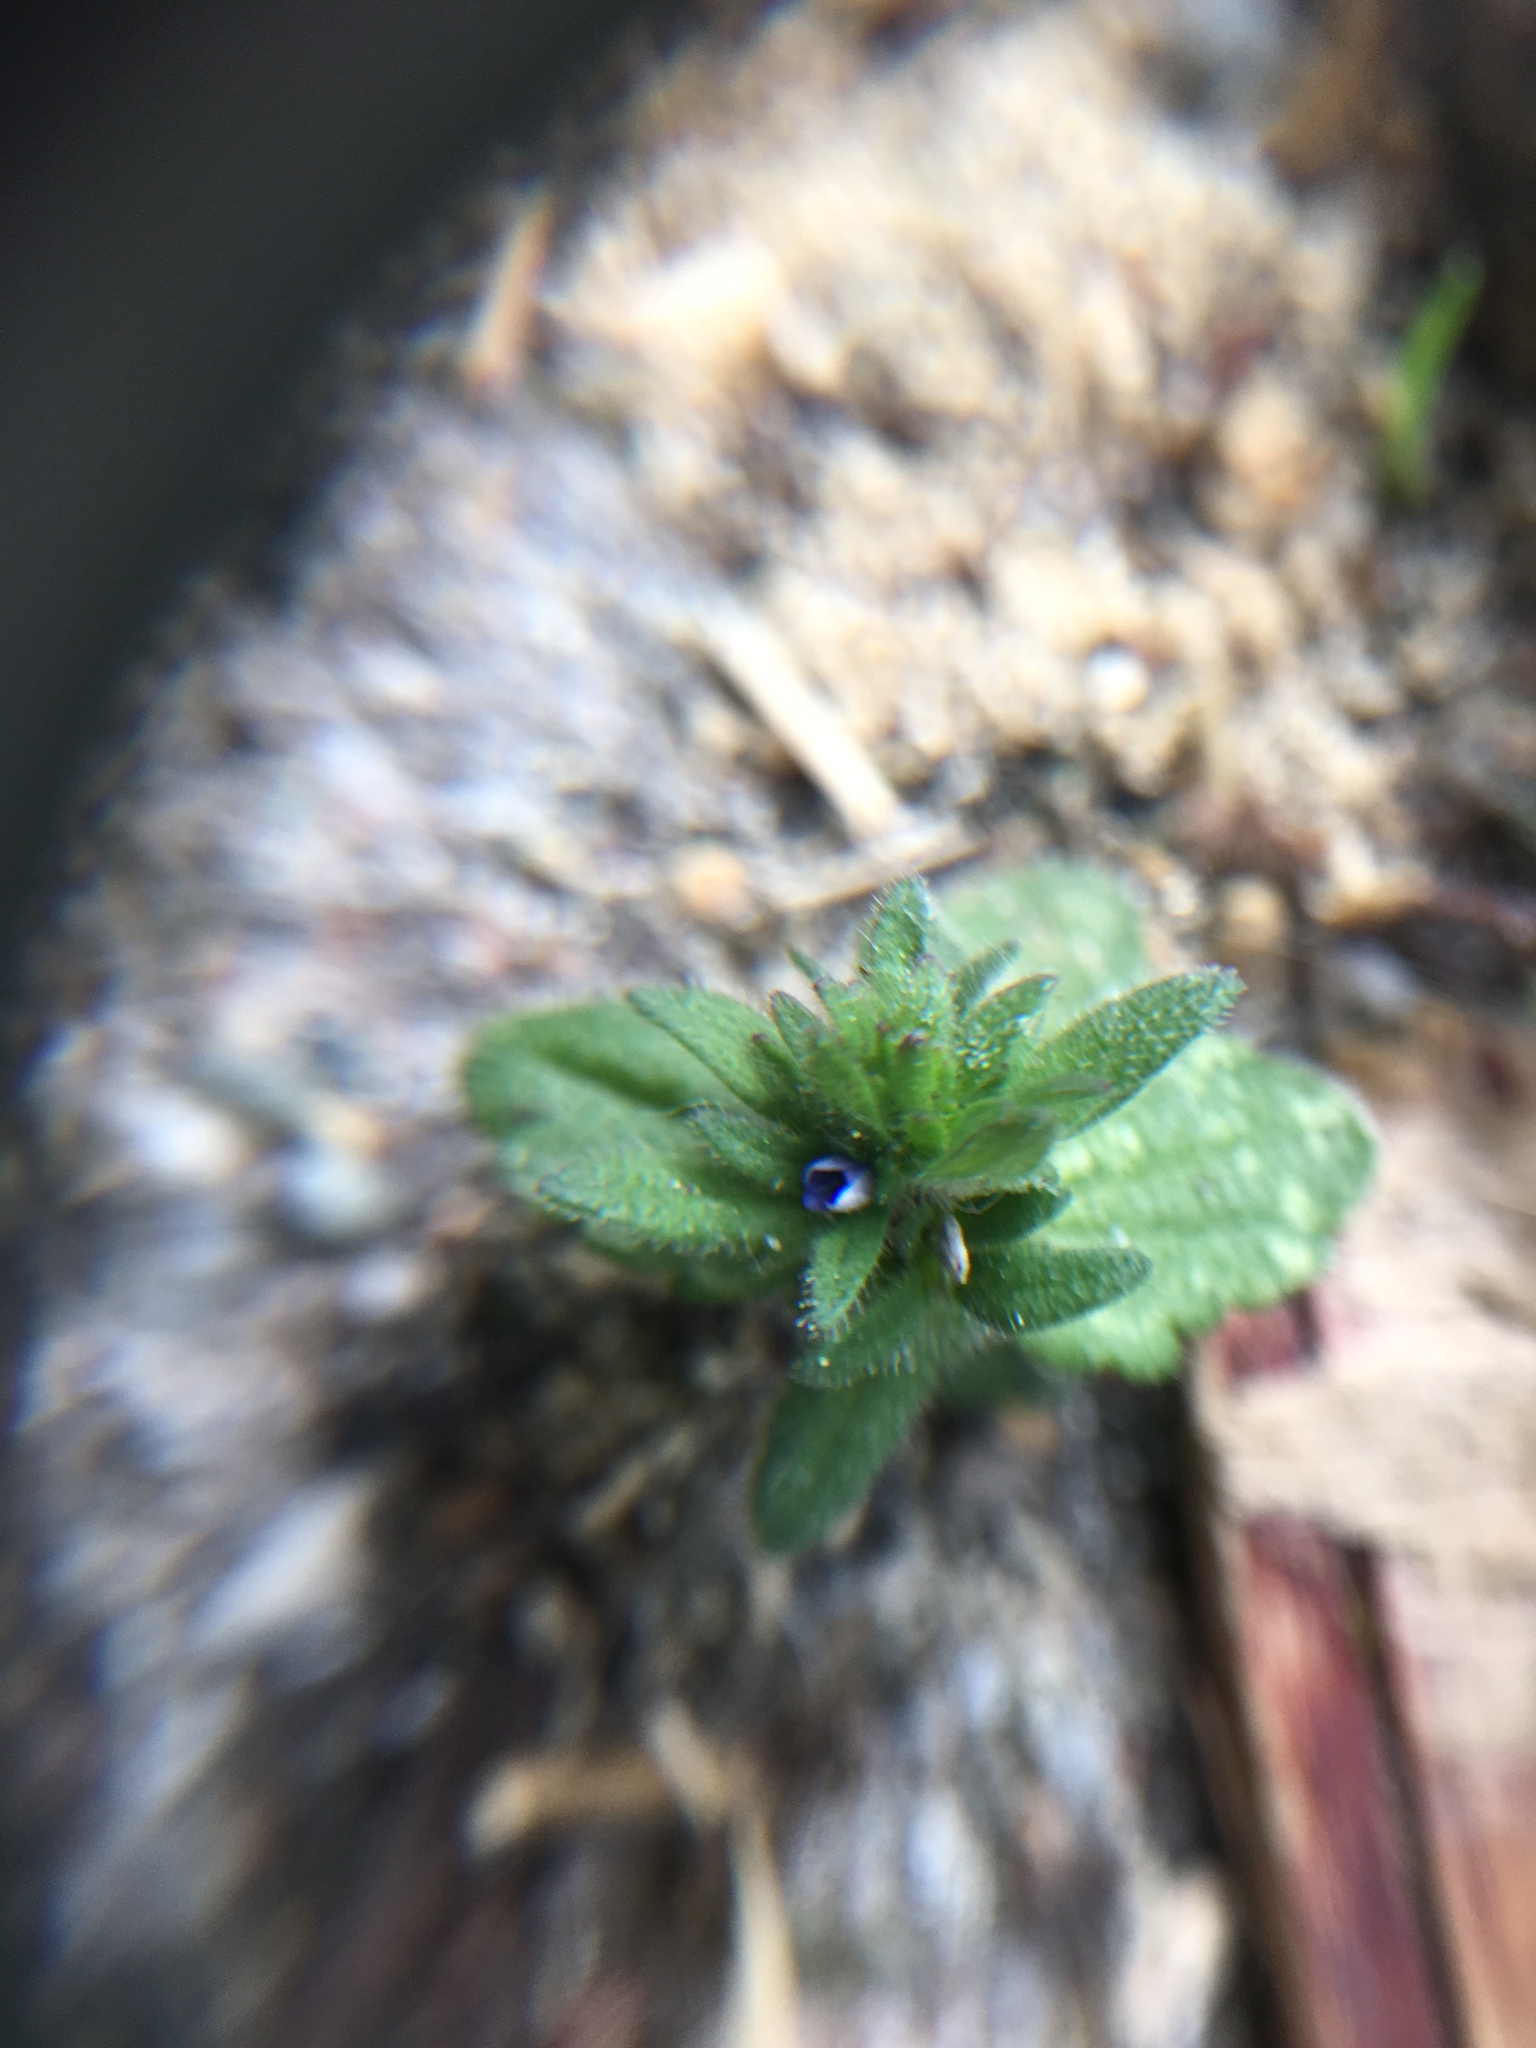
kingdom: Plantae
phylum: Tracheophyta
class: Magnoliopsida
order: Lamiales
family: Plantaginaceae
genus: Veronica
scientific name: Veronica arvensis
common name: Corn speedwell
